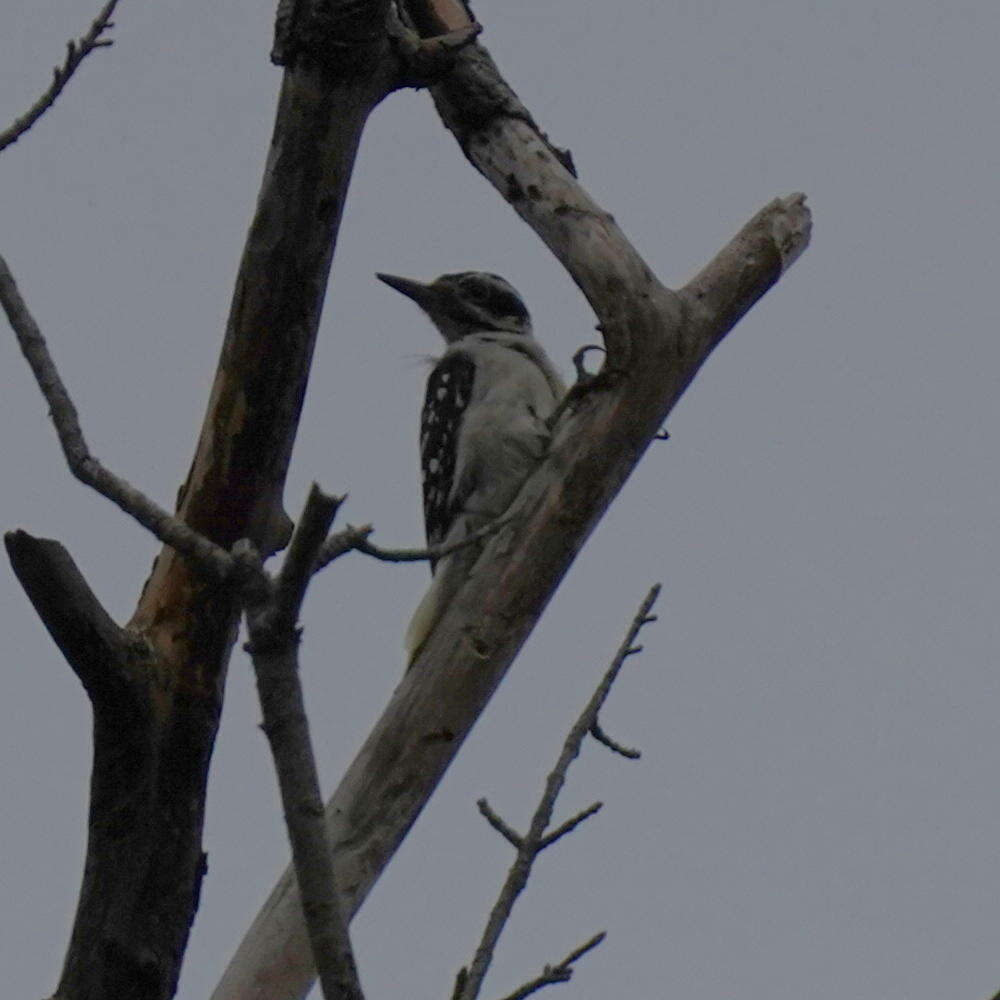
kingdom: Animalia
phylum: Chordata
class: Aves
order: Piciformes
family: Picidae
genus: Leuconotopicus
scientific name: Leuconotopicus villosus
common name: Hairy woodpecker
